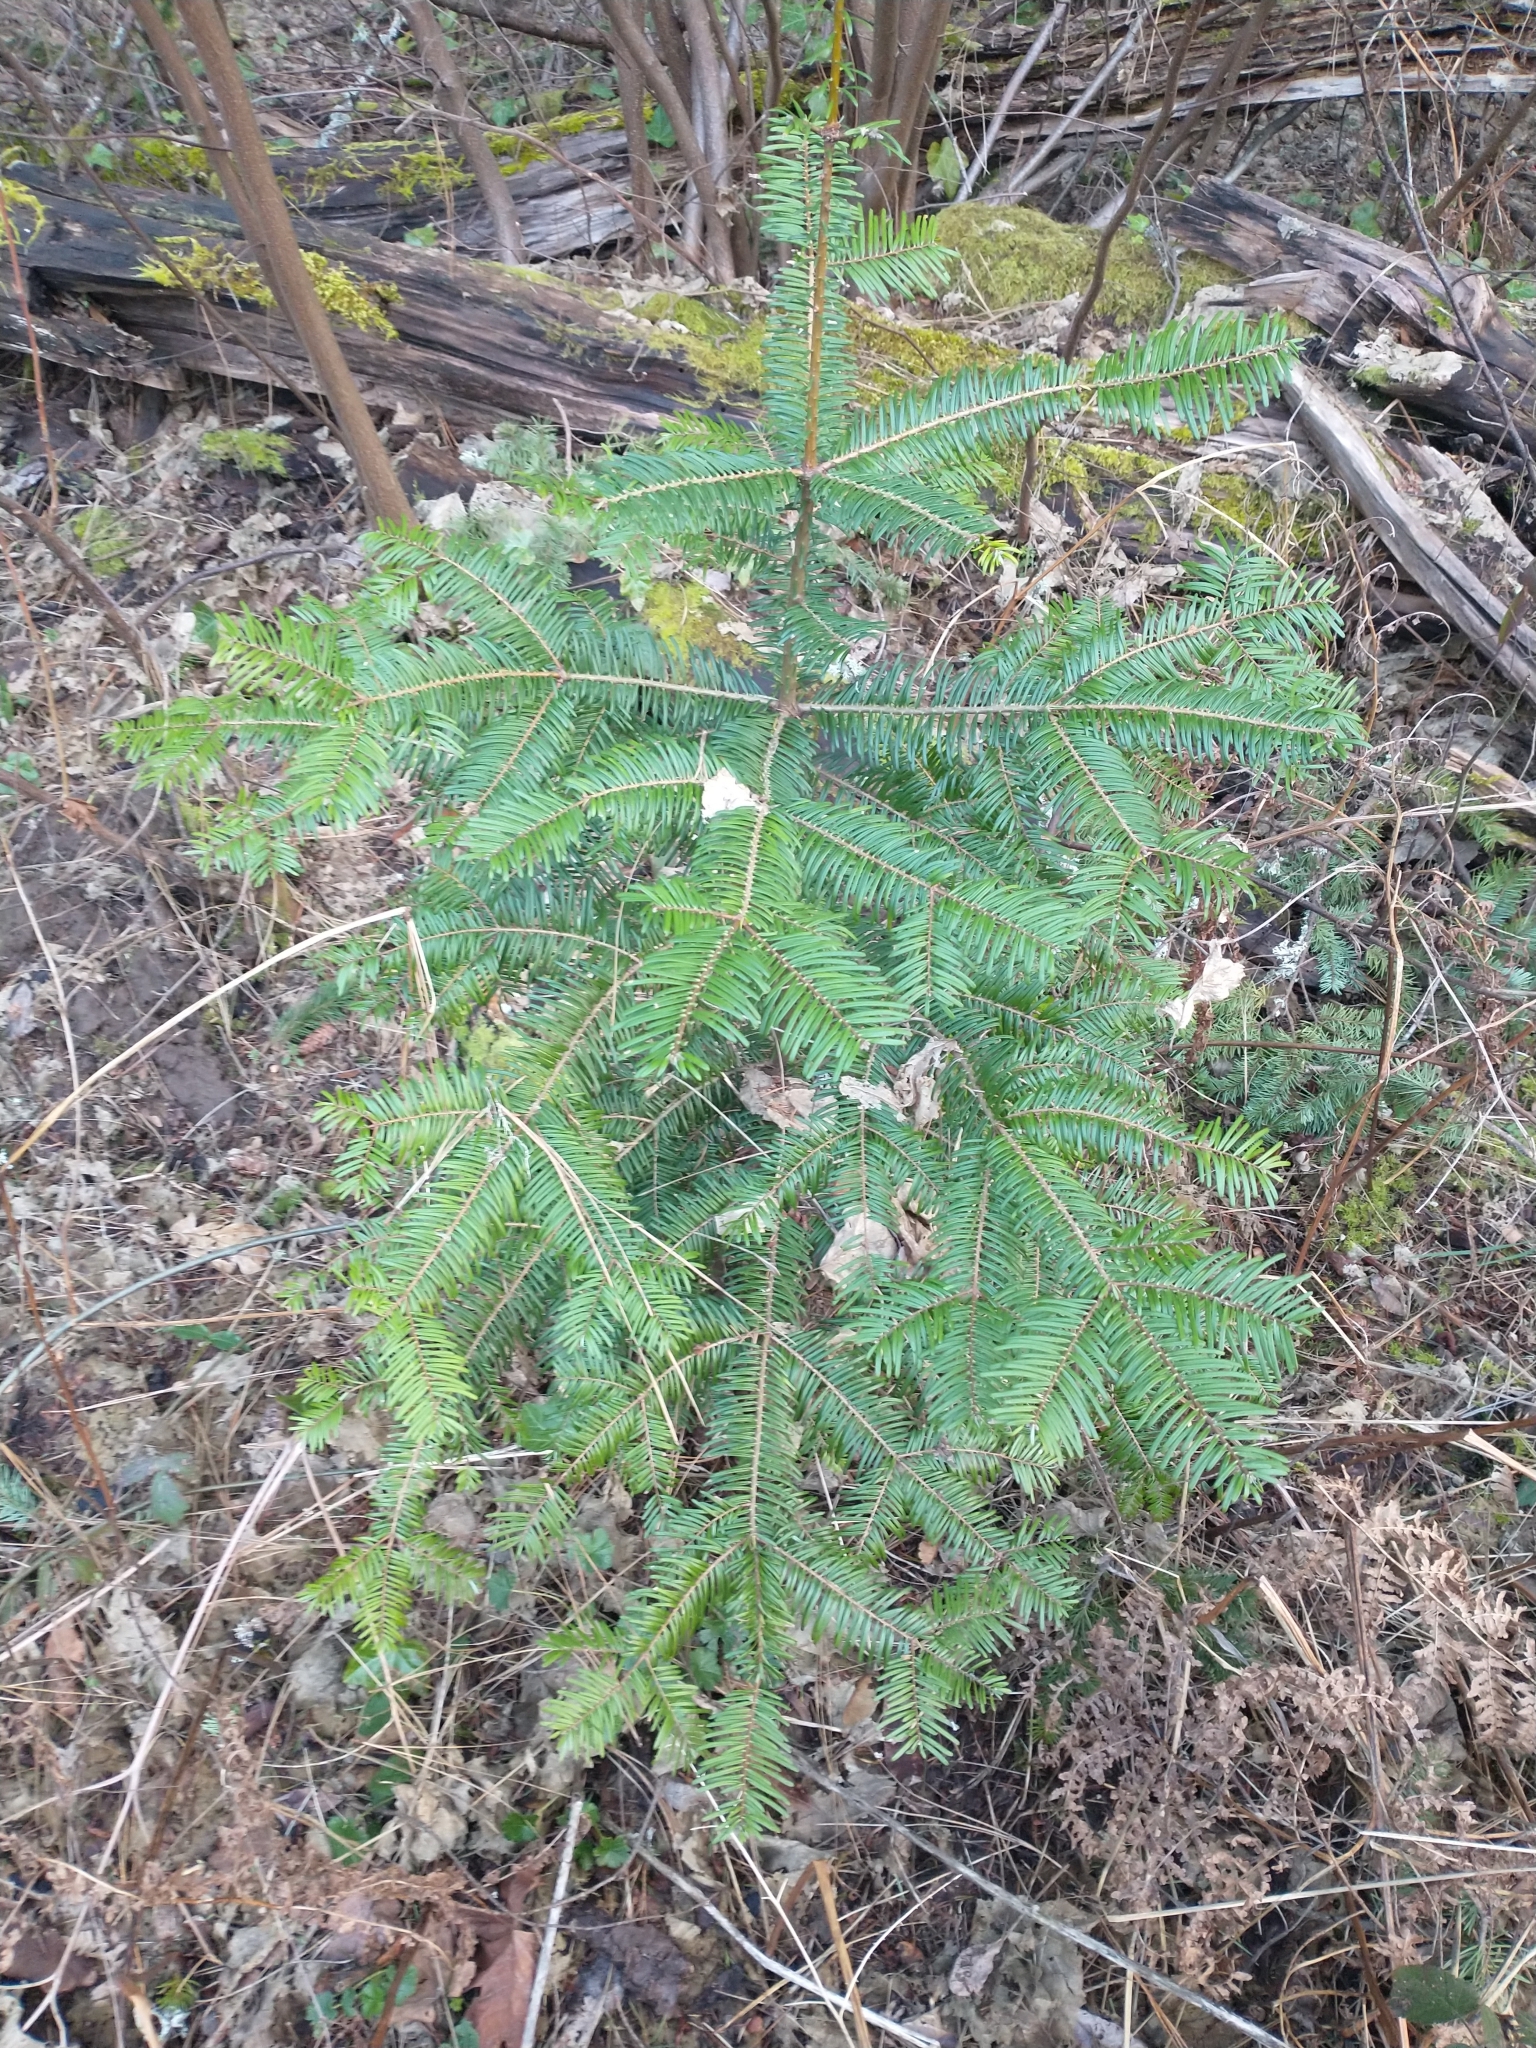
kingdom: Plantae
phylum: Tracheophyta
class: Pinopsida
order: Pinales
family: Pinaceae
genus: Abies
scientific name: Abies grandis
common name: Giant fir
